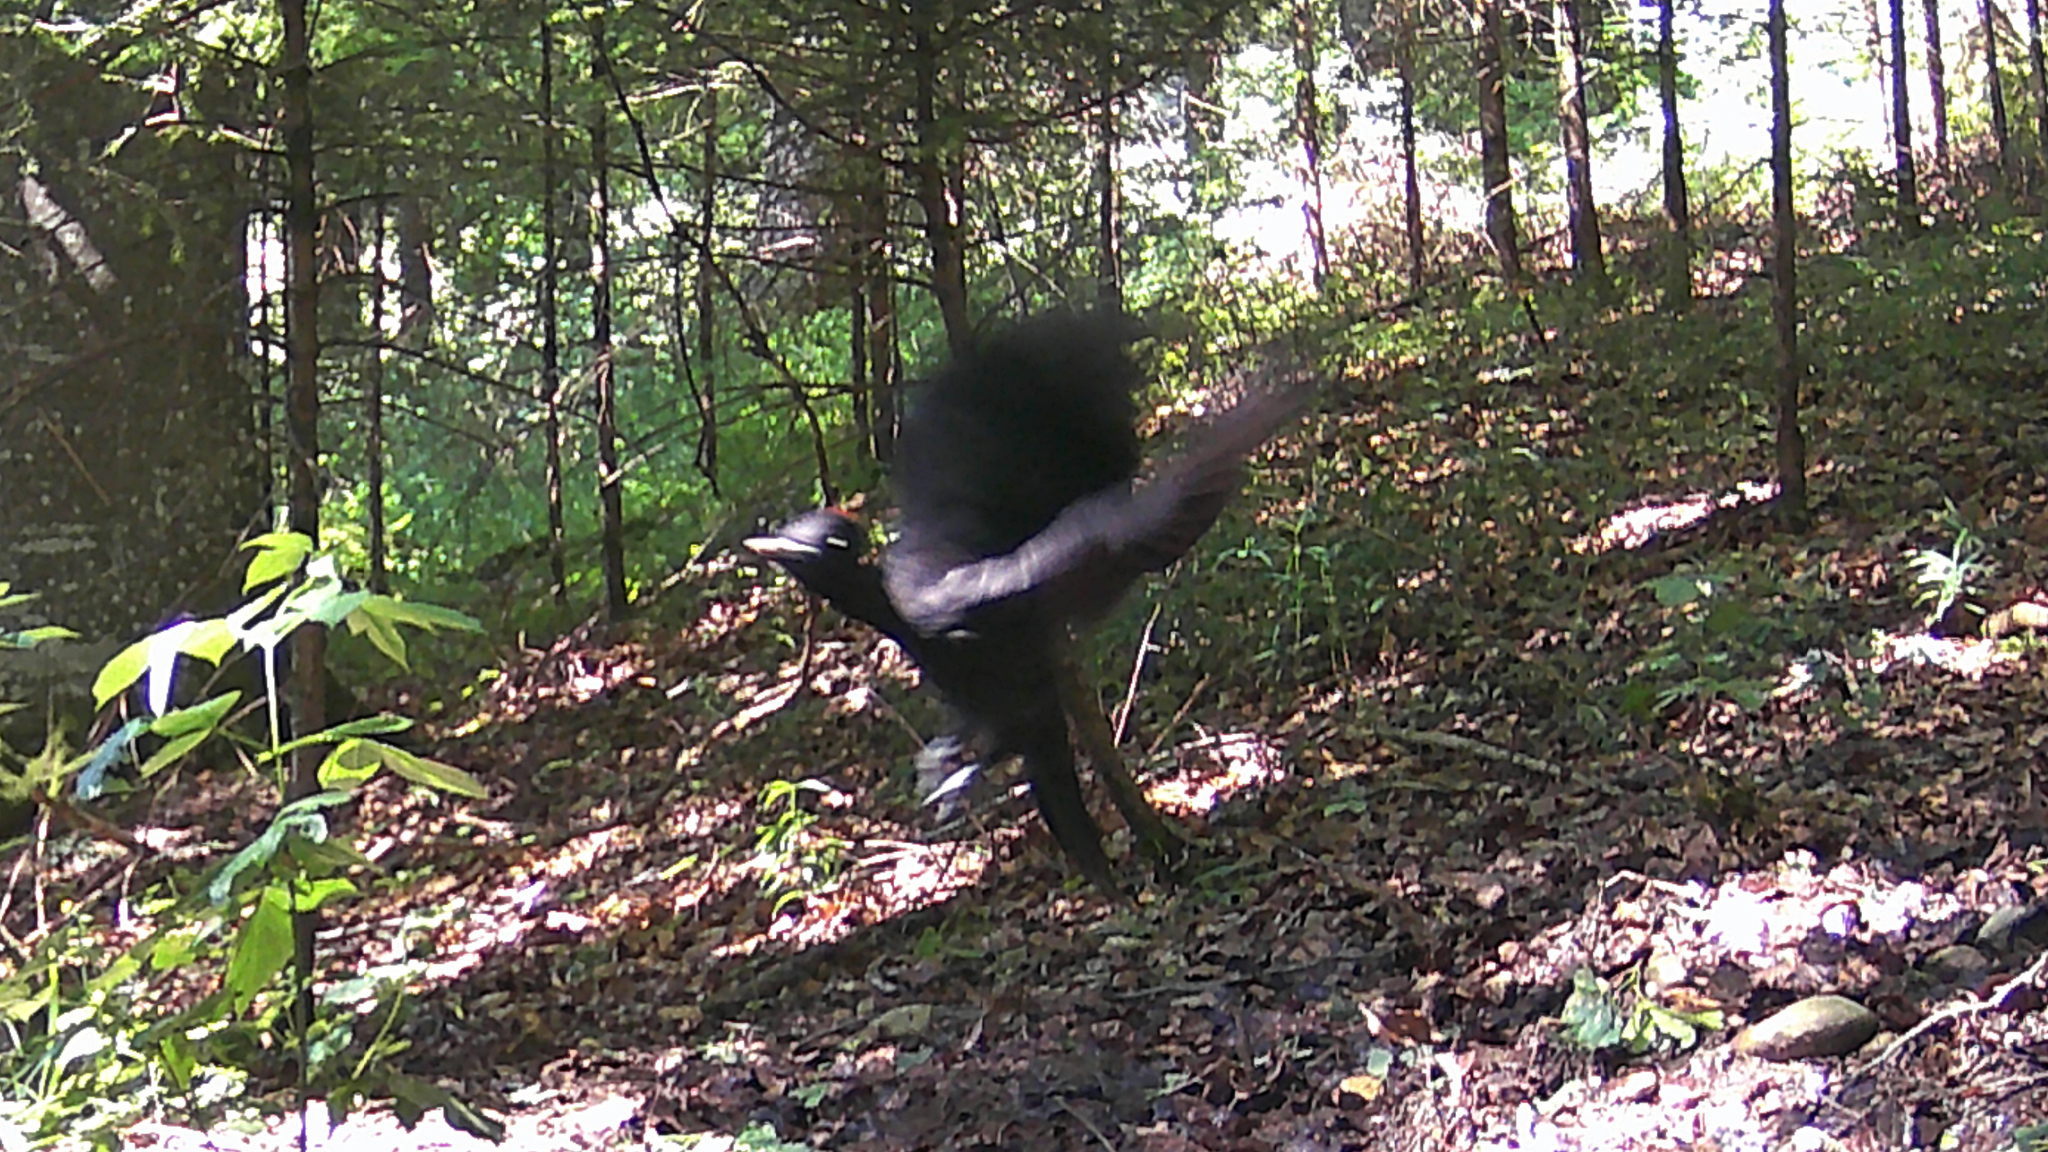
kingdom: Animalia
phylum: Chordata
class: Aves
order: Piciformes
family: Picidae
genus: Dryocopus
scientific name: Dryocopus martius
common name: Black woodpecker
